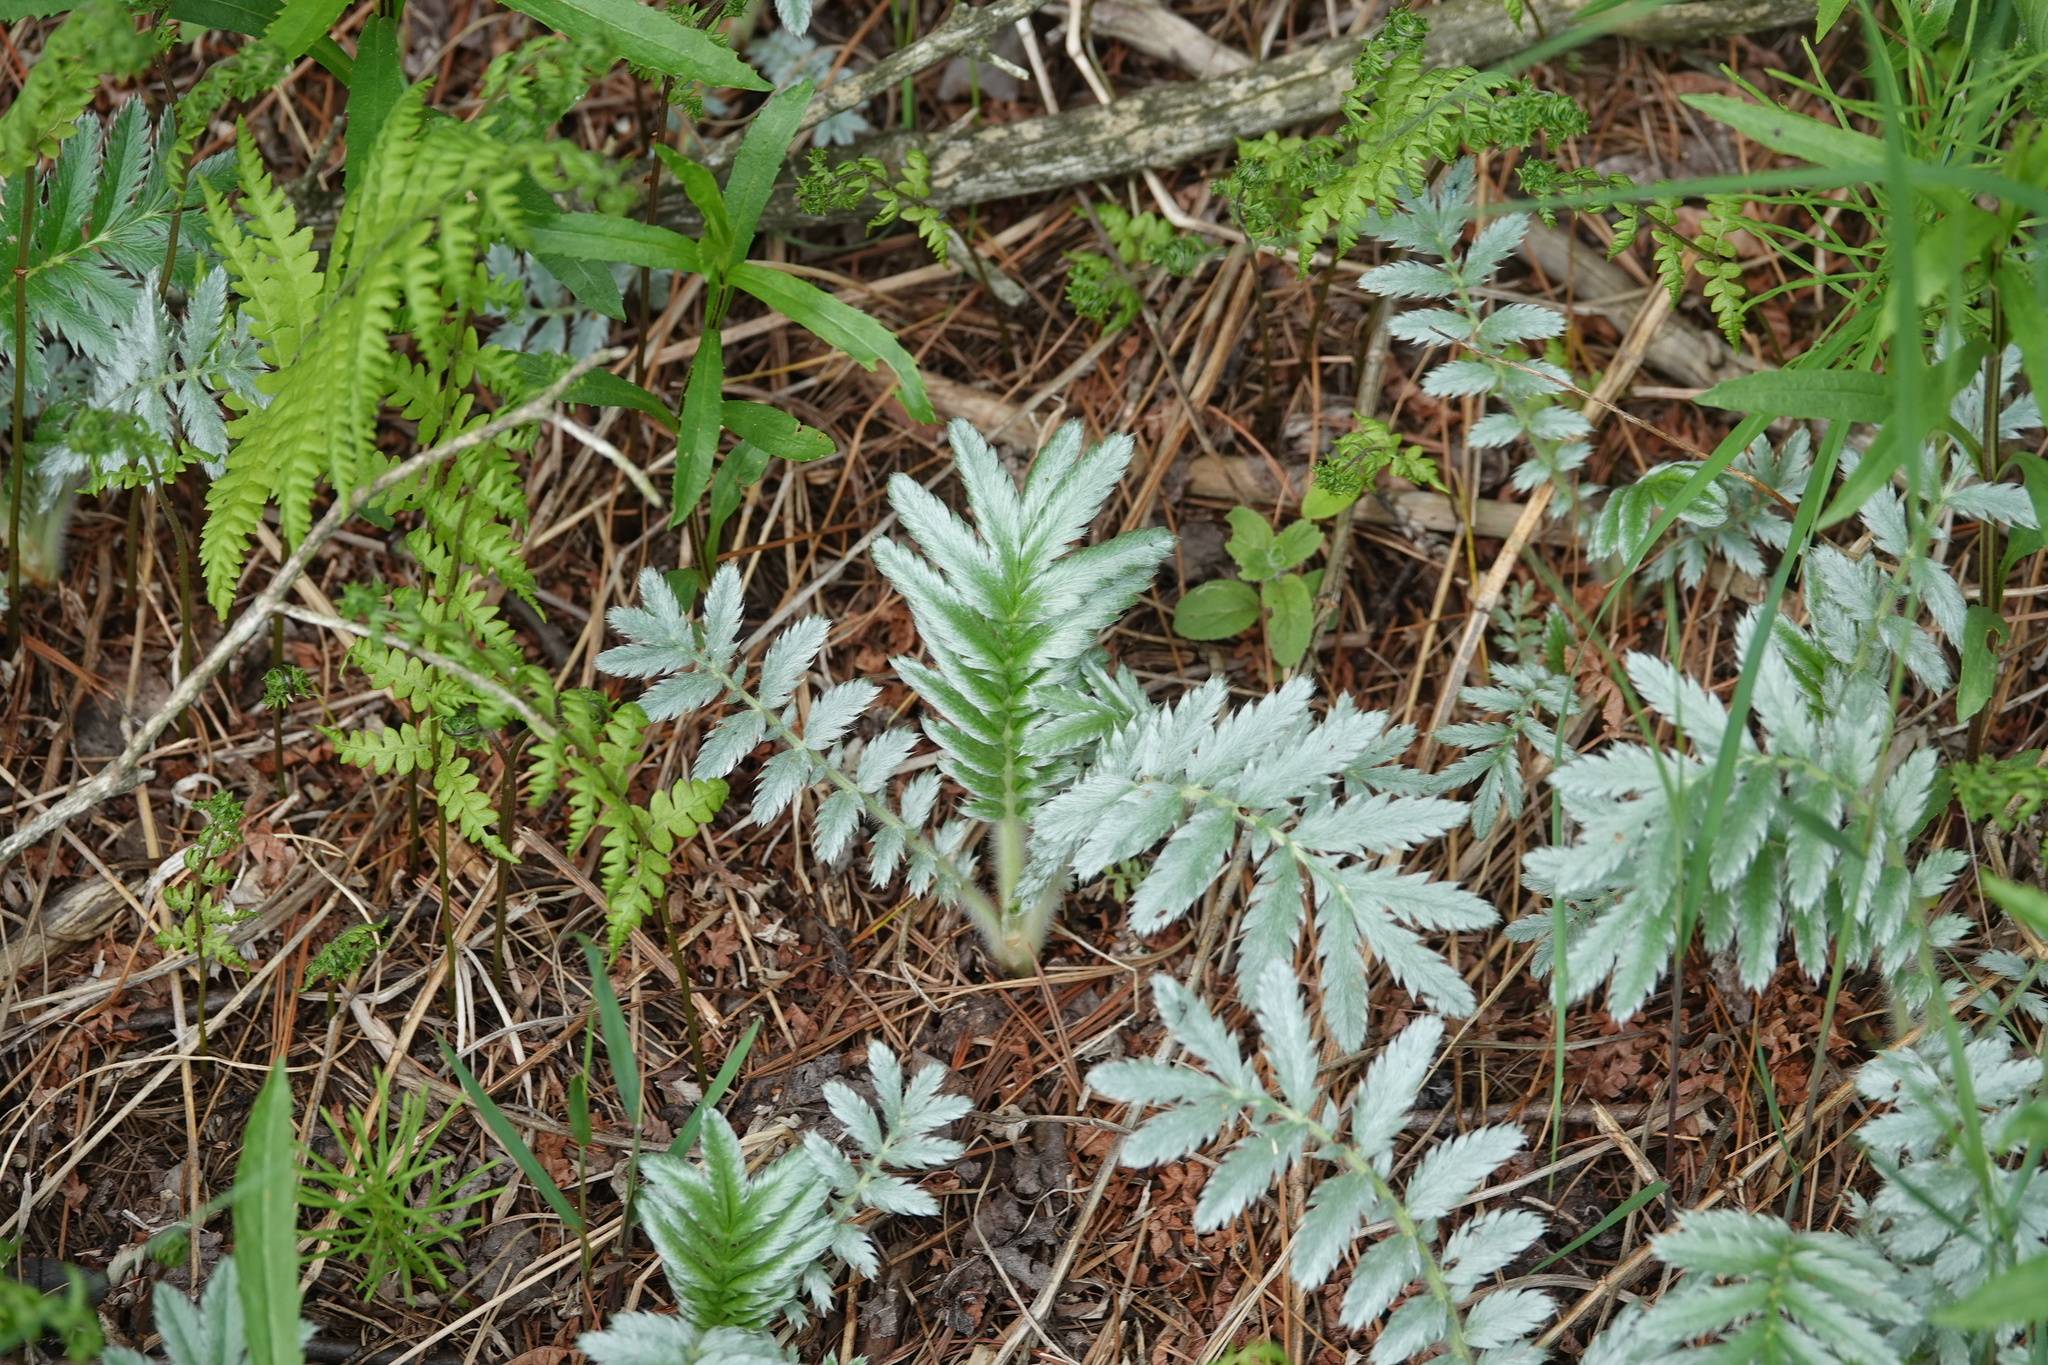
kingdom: Plantae
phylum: Tracheophyta
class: Magnoliopsida
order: Rosales
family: Rosaceae
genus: Argentina
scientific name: Argentina anserina
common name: Common silverweed
